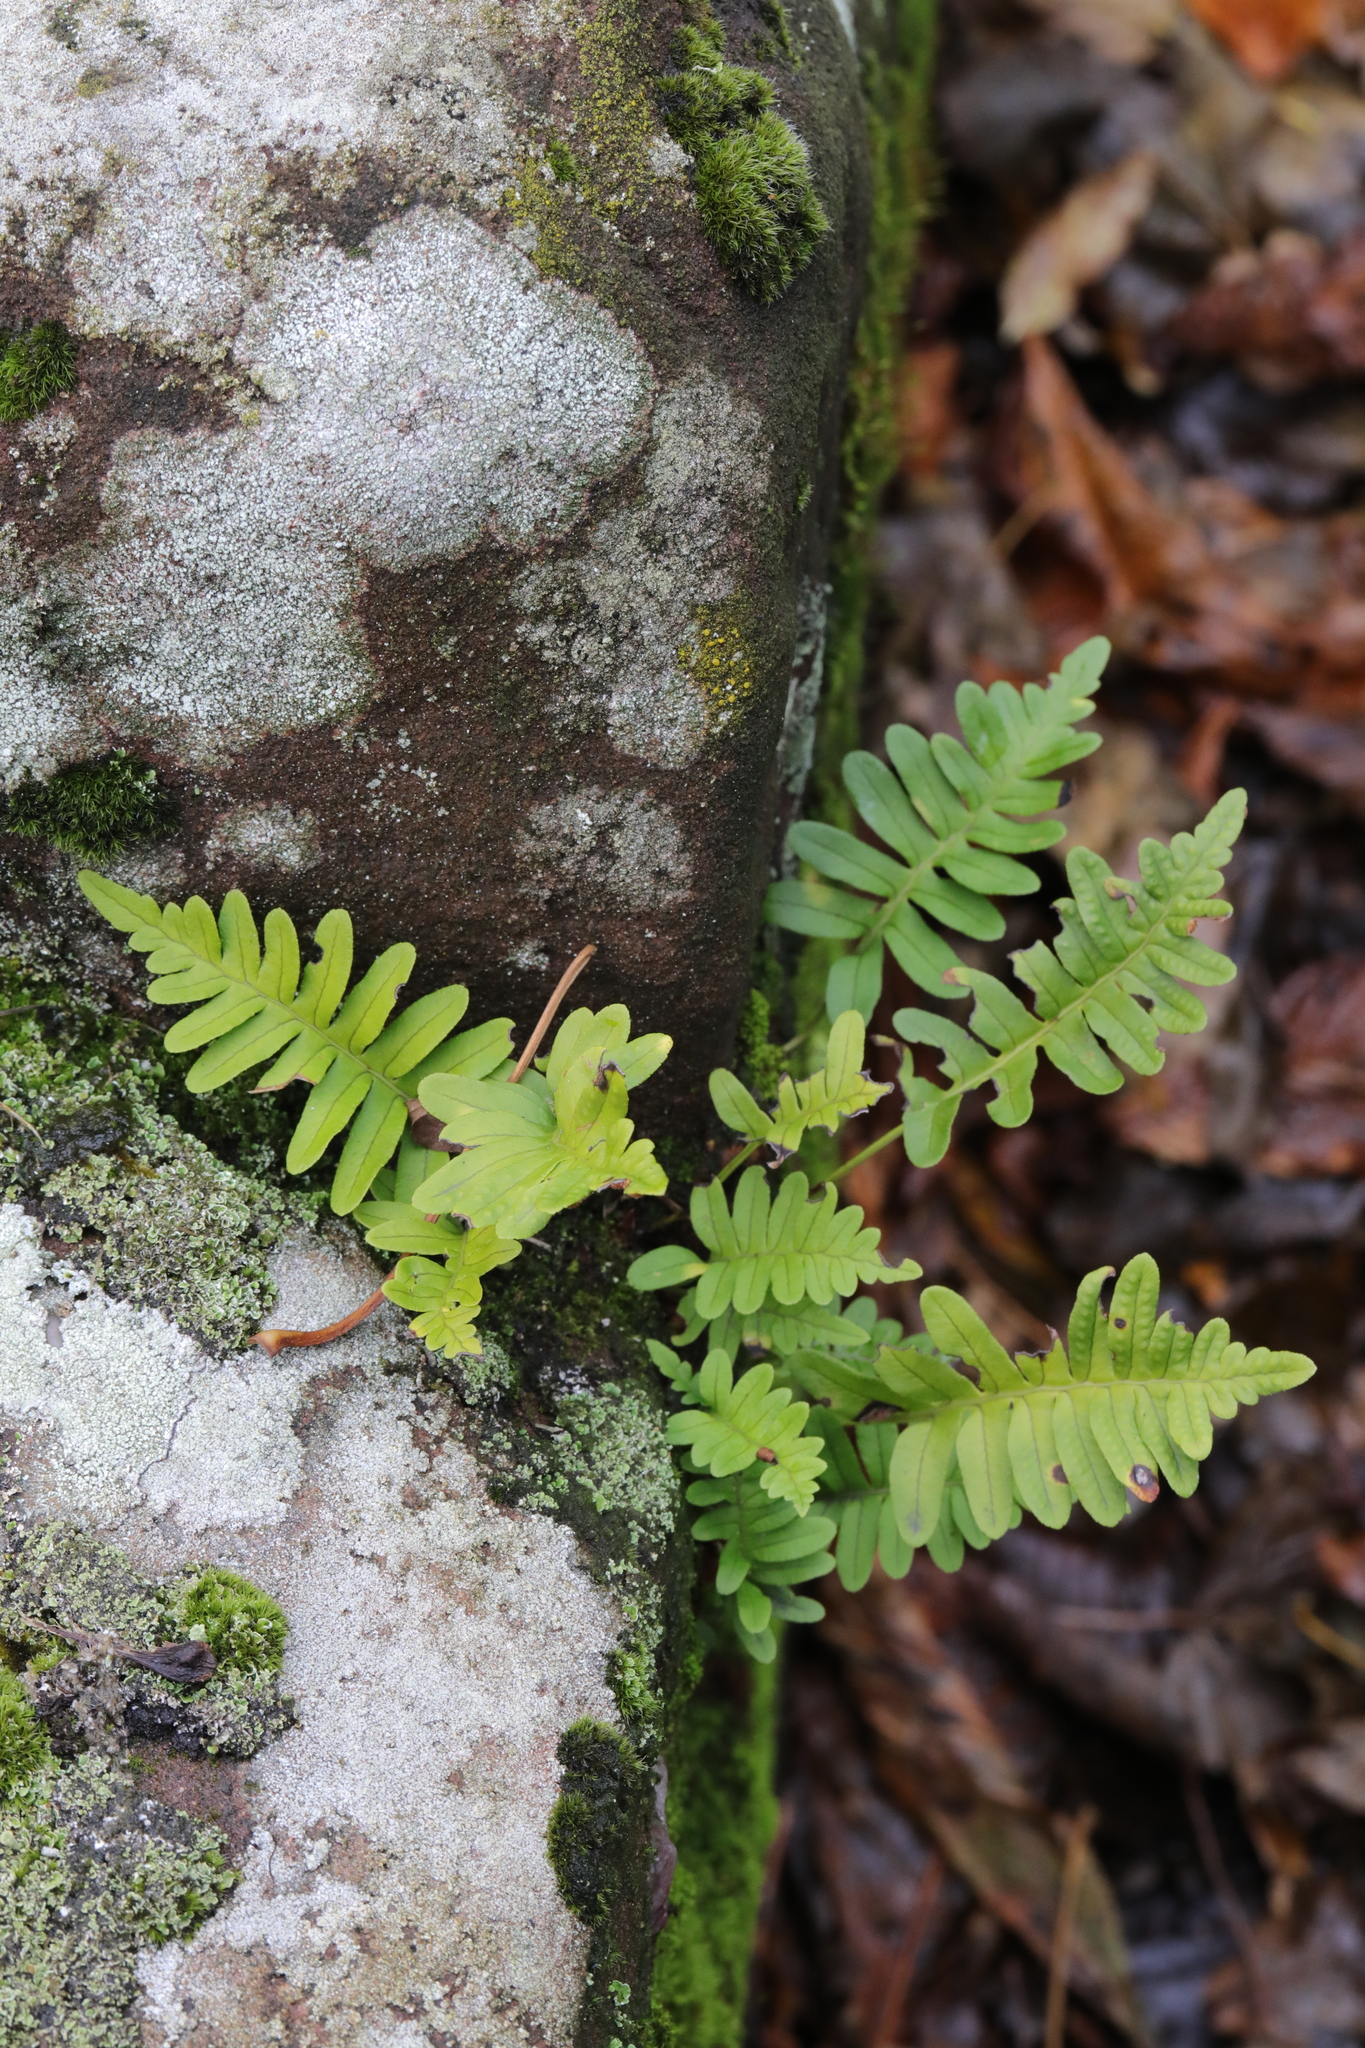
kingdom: Plantae
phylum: Tracheophyta
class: Polypodiopsida
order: Polypodiales
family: Polypodiaceae
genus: Polypodium
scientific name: Polypodium vulgare
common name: Common polypody
